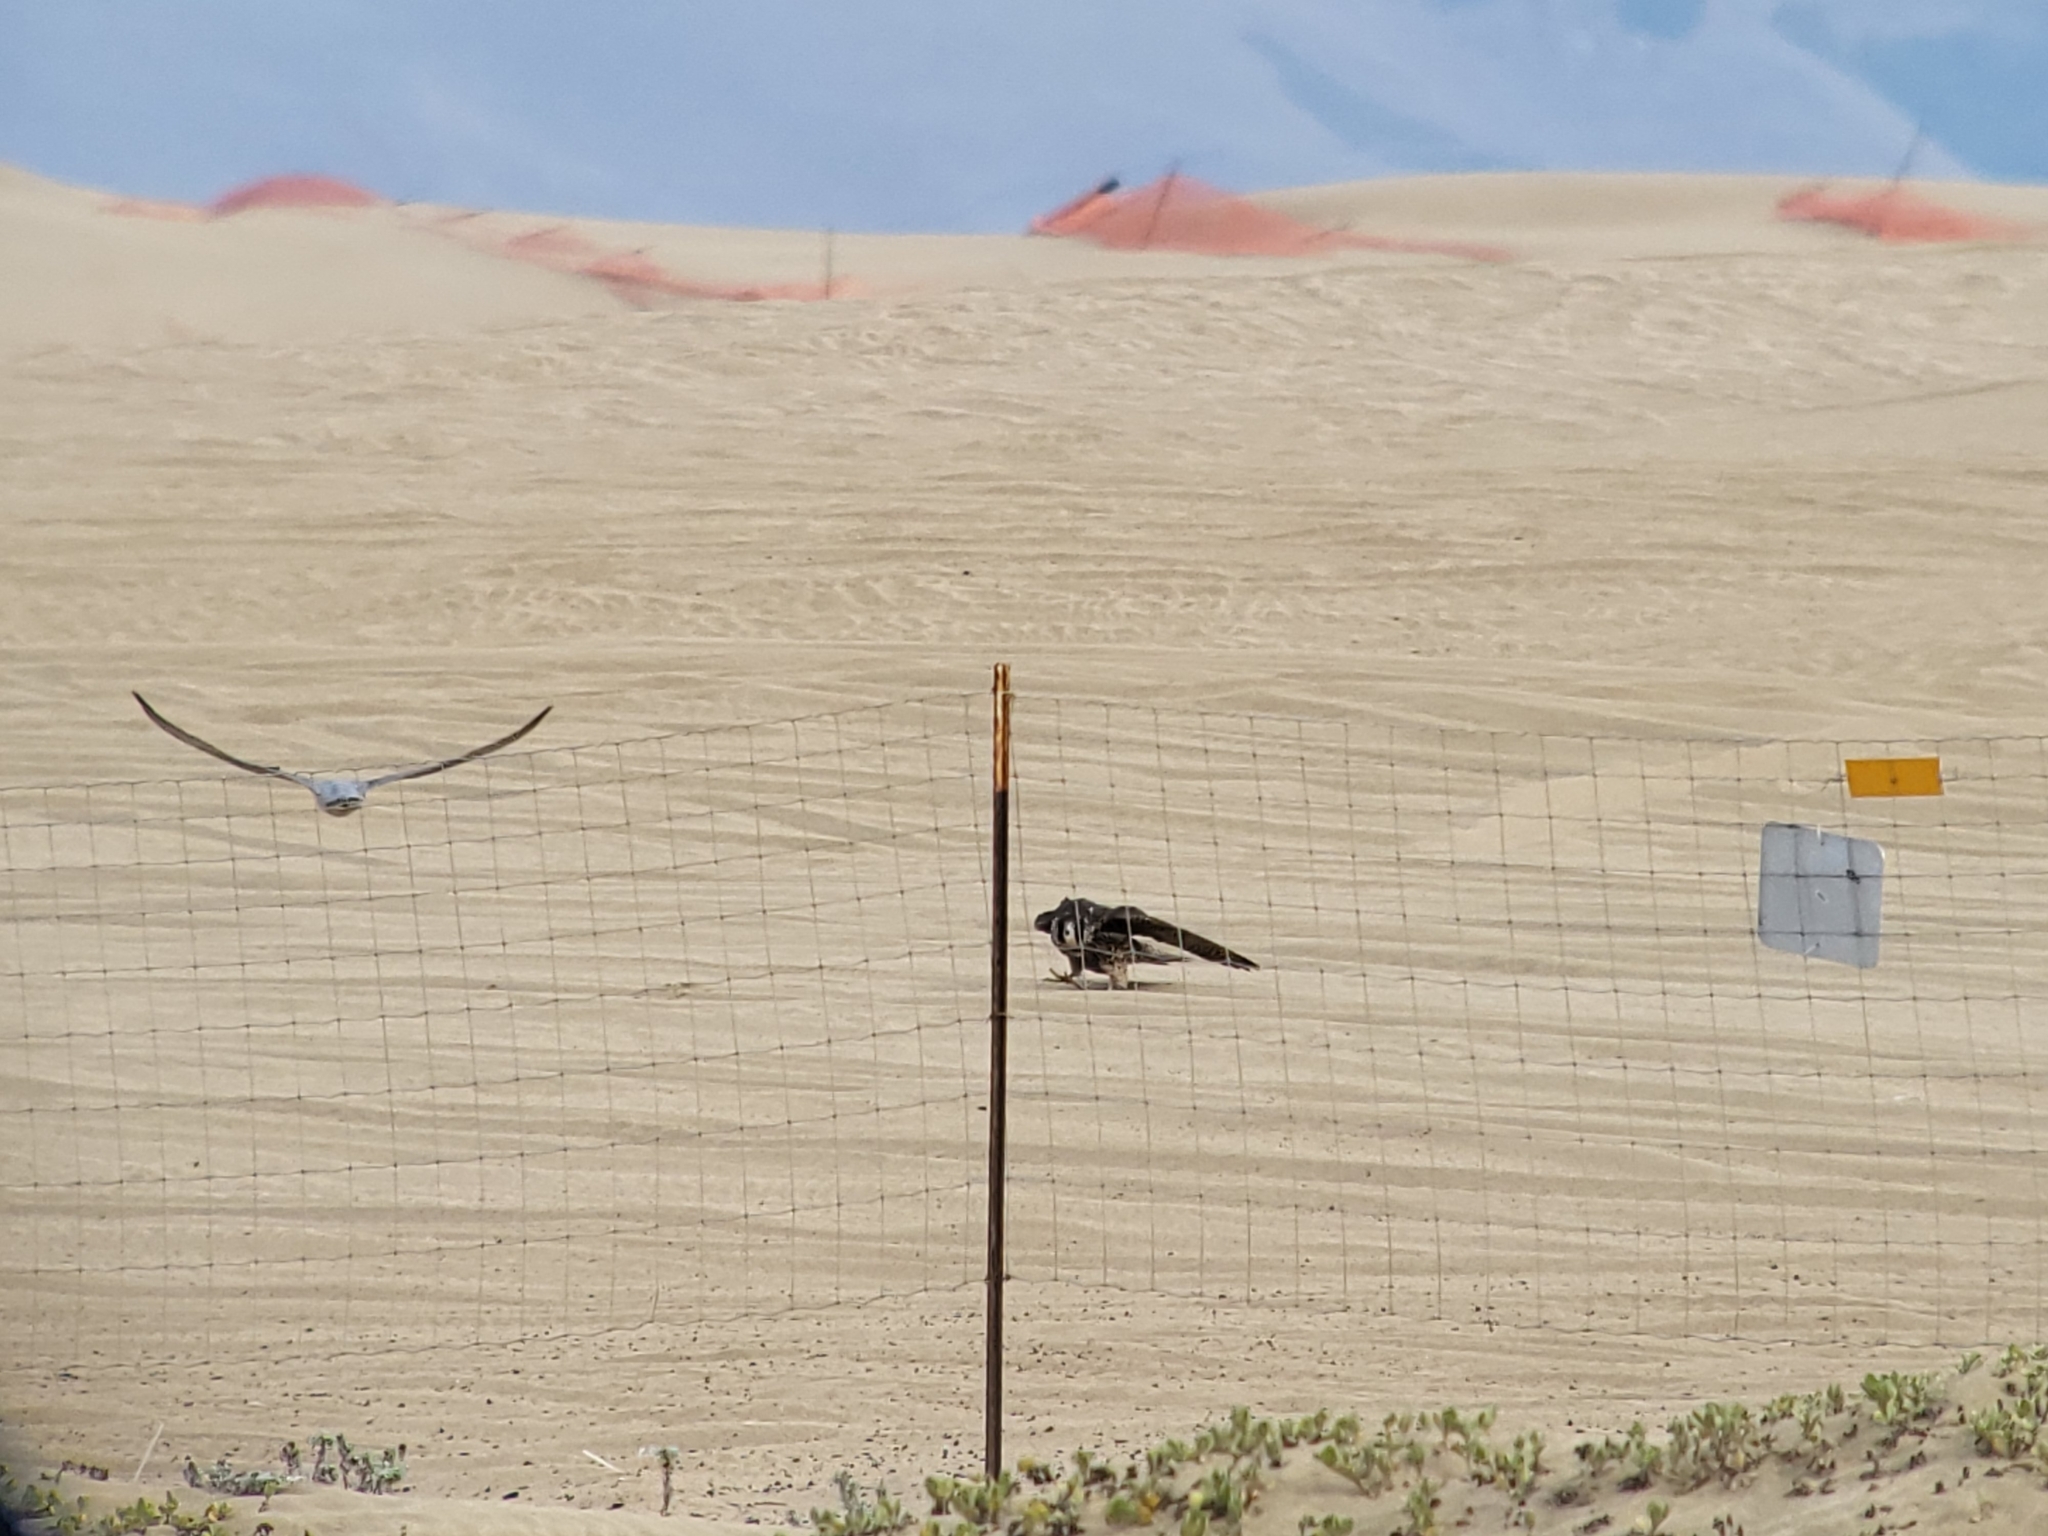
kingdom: Animalia
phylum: Chordata
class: Aves
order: Falconiformes
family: Falconidae
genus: Falco
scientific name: Falco peregrinus
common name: Peregrine falcon
